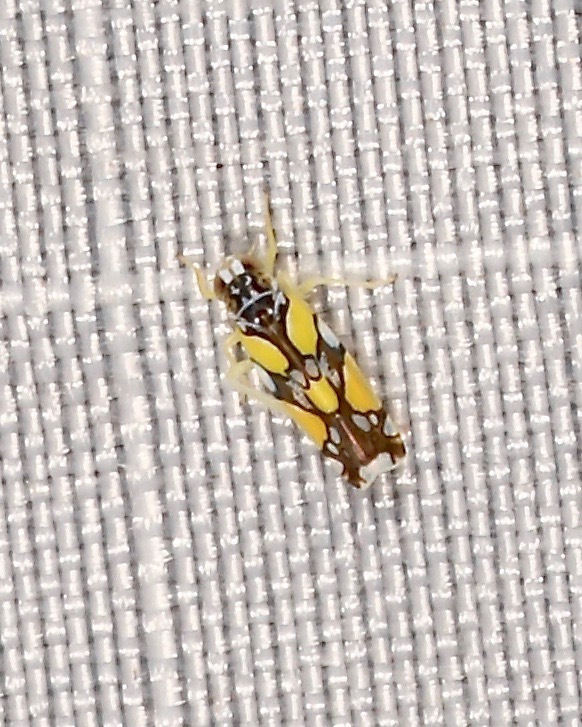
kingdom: Animalia
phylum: Arthropoda
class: Insecta
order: Hemiptera
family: Cicadellidae
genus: Protalebrella
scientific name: Protalebrella brasiliensis
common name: Brasilian leafhopper
